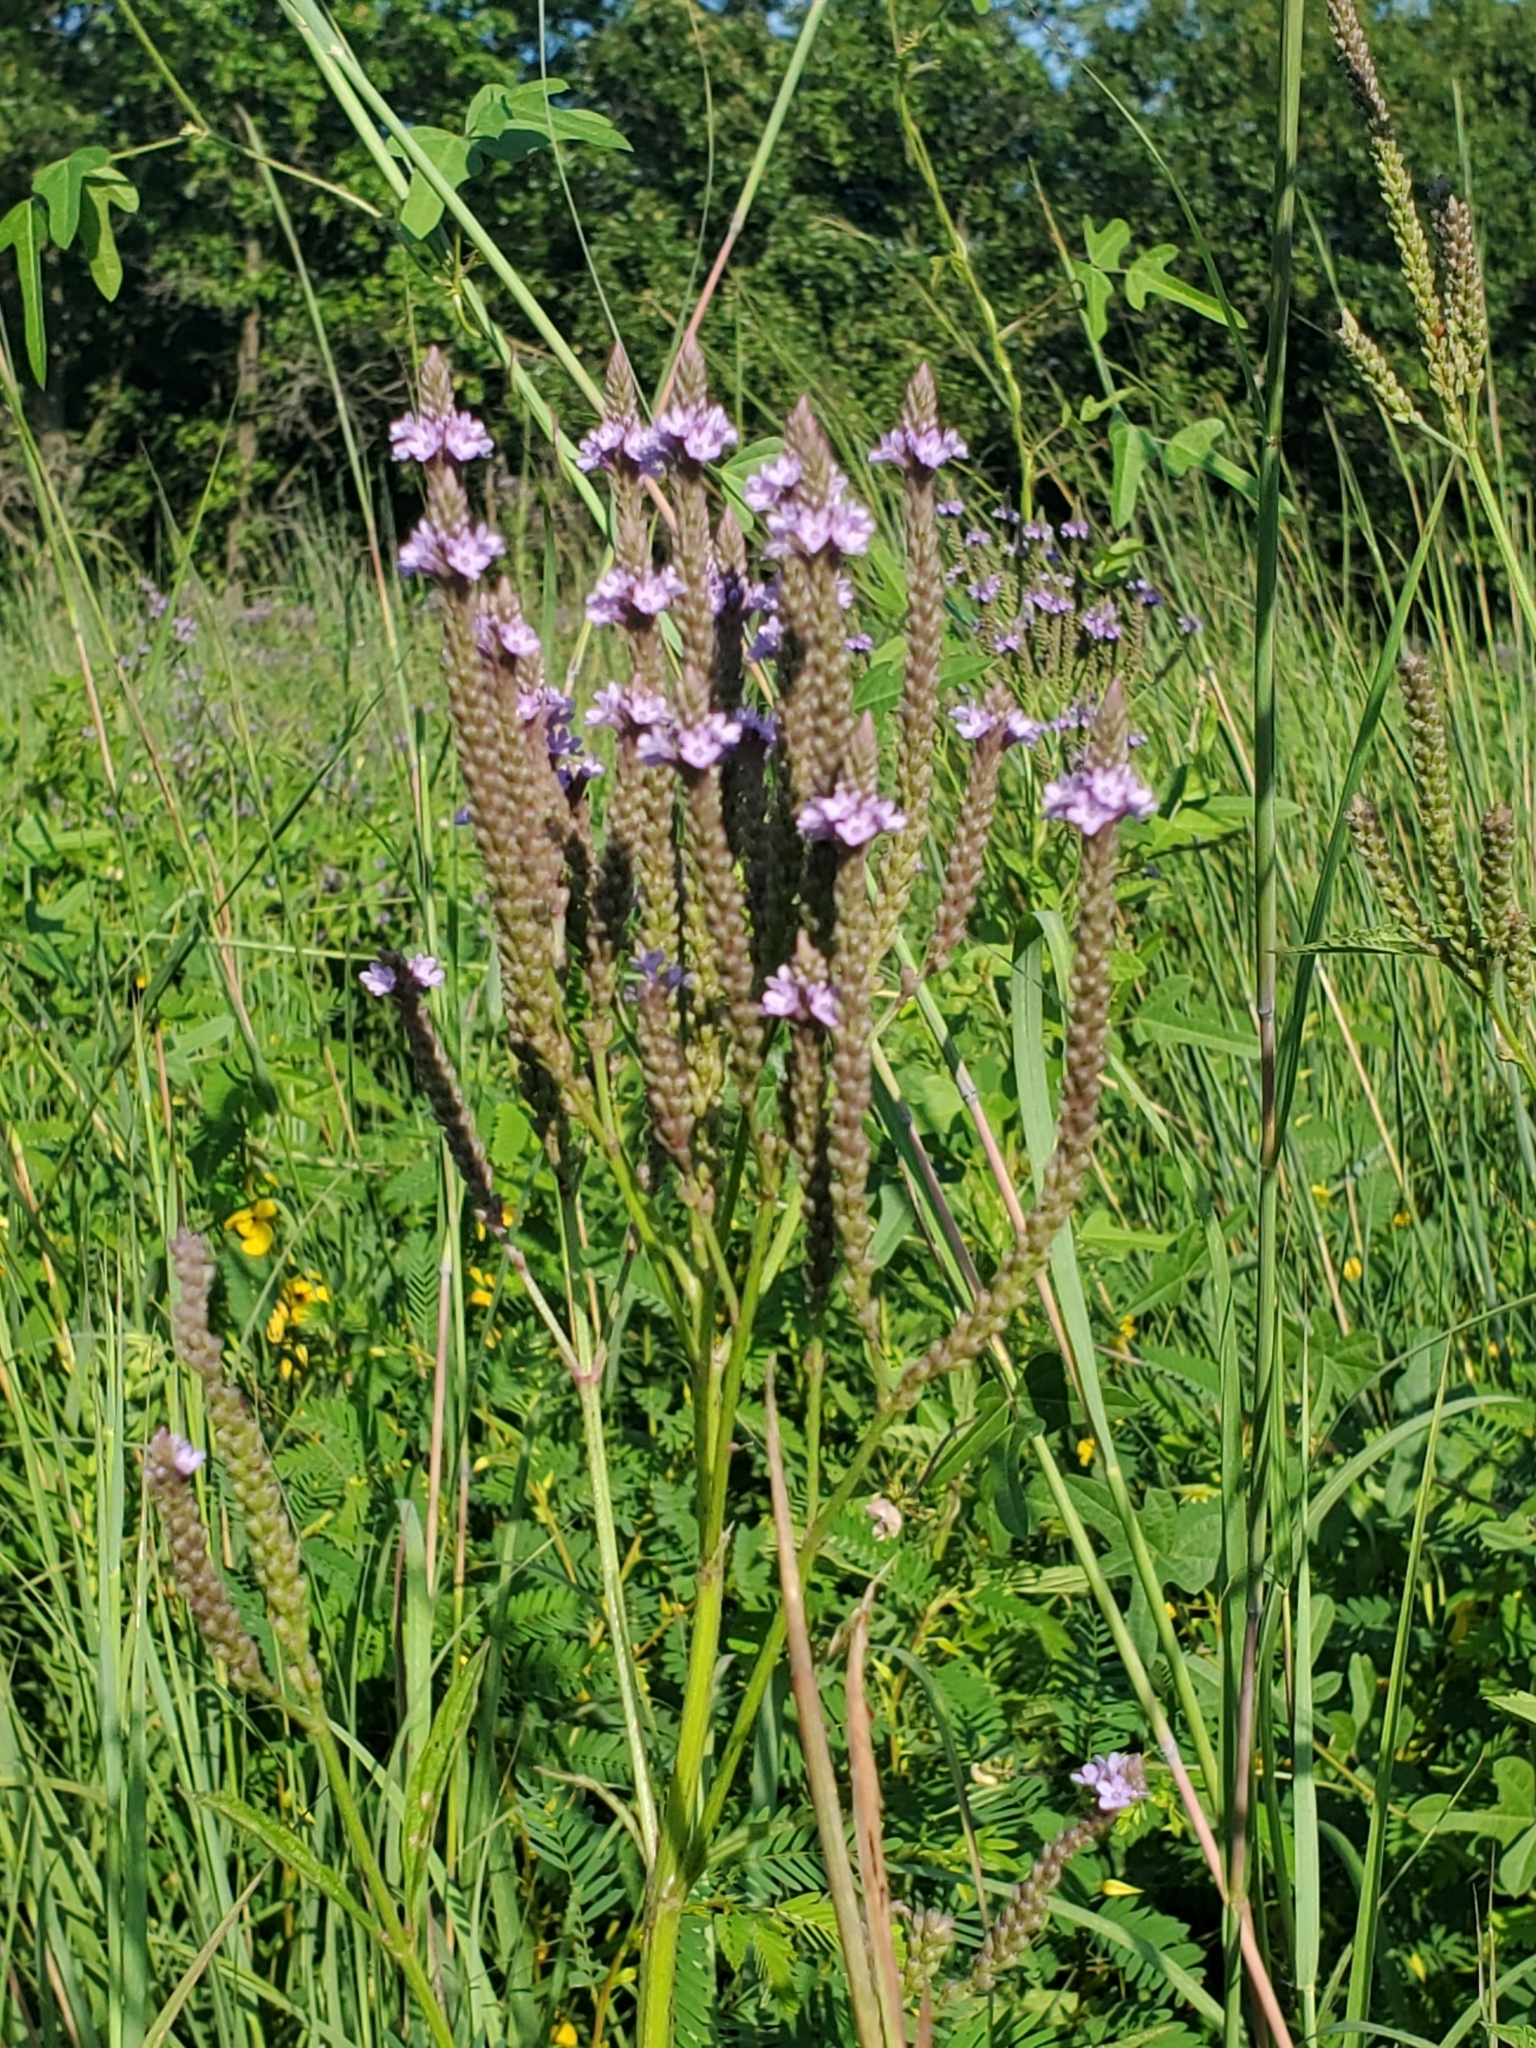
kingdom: Plantae
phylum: Tracheophyta
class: Magnoliopsida
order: Lamiales
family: Verbenaceae
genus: Verbena
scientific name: Verbena hastata
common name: American blue vervain
